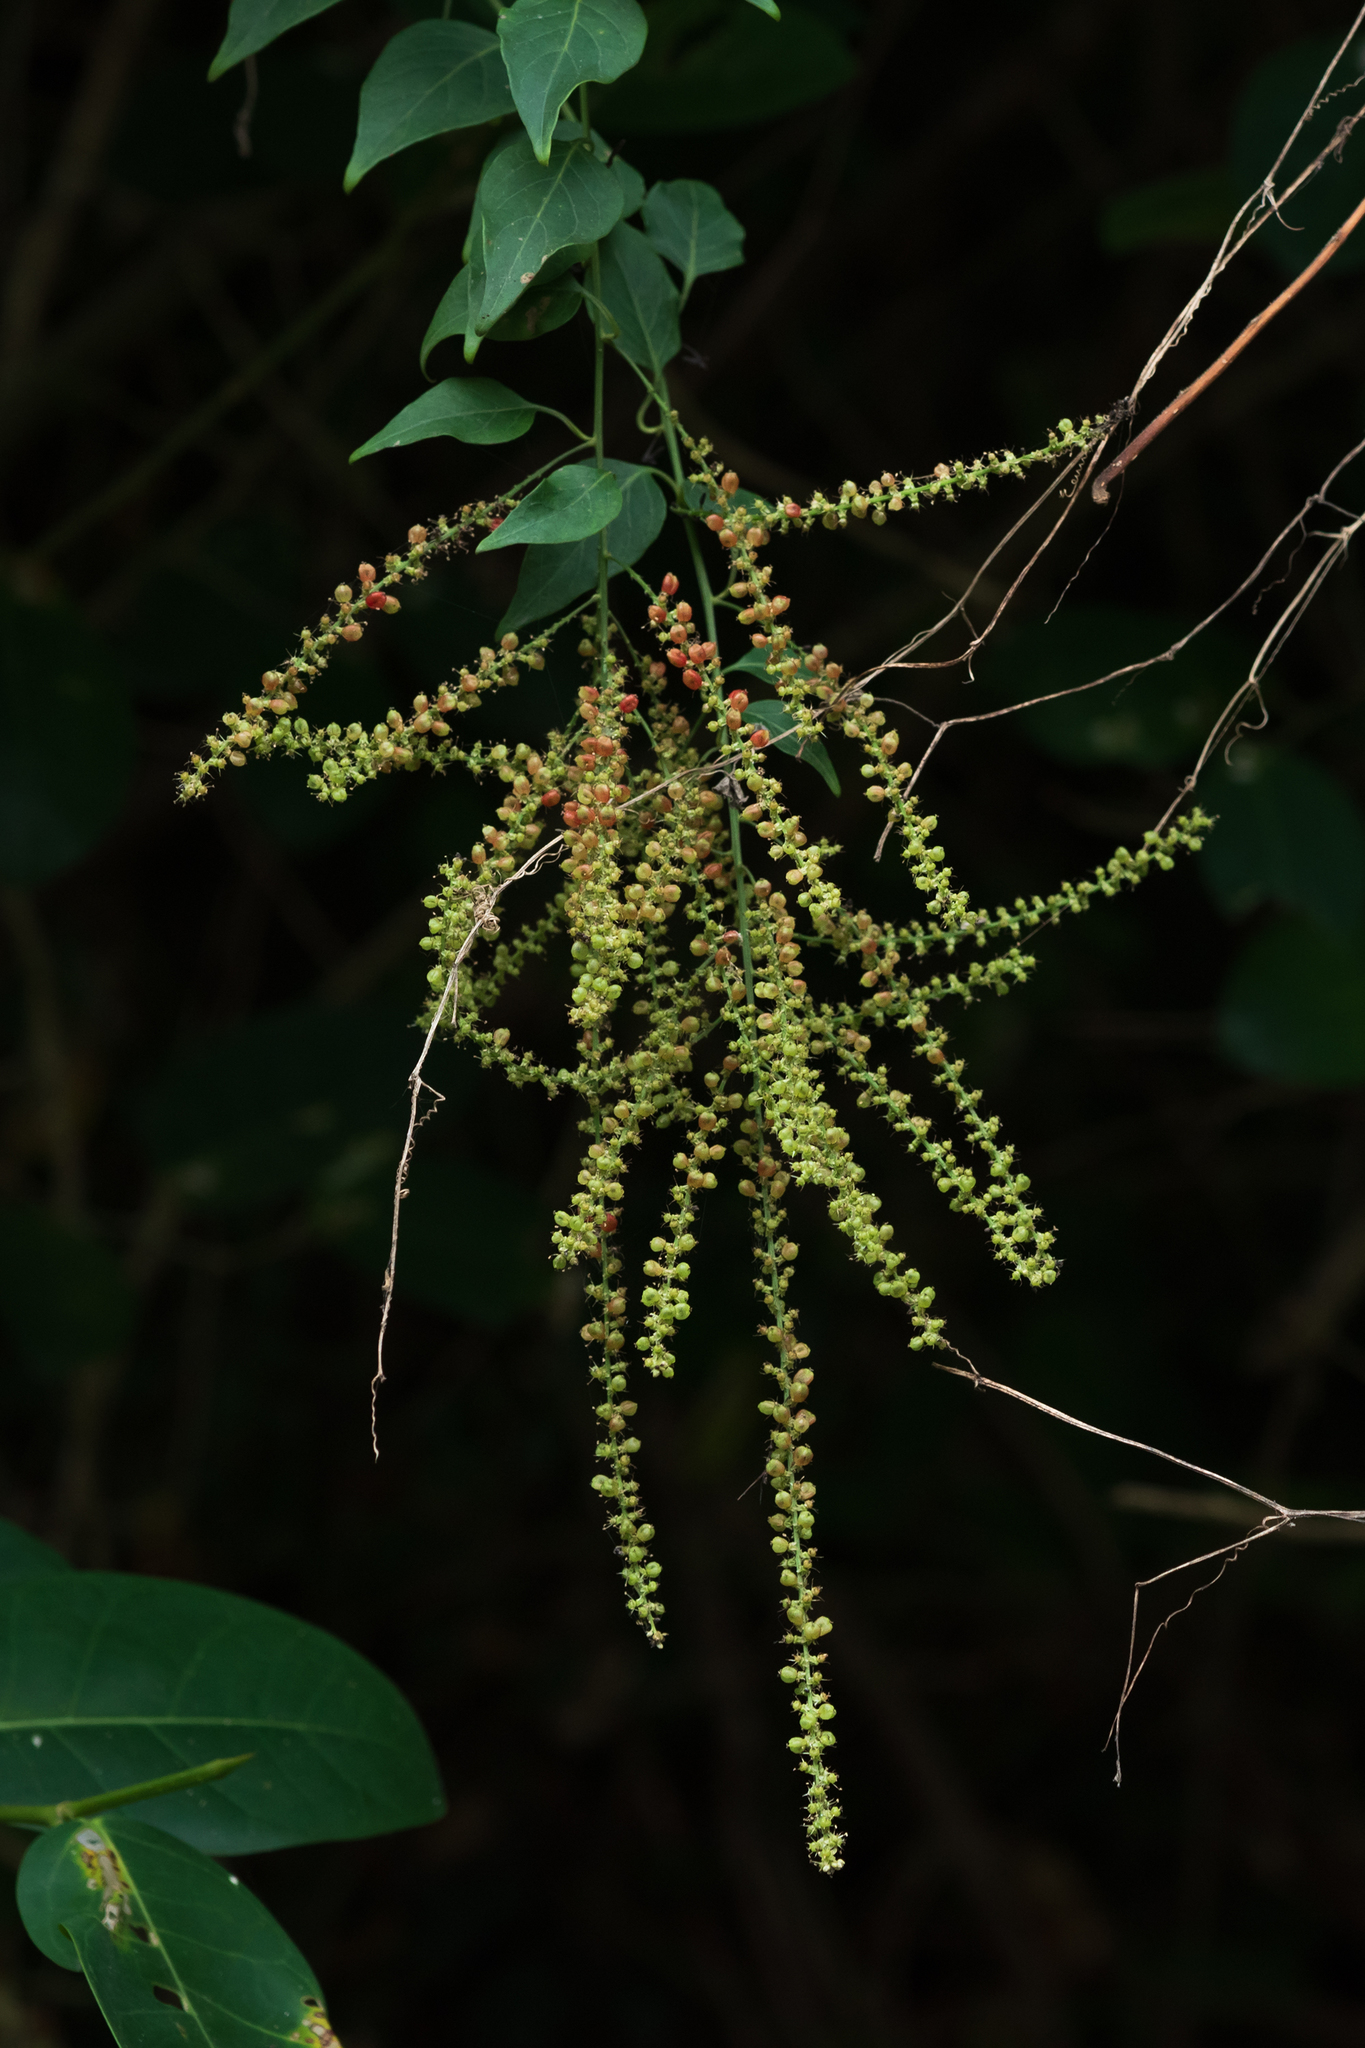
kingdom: Plantae
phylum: Tracheophyta
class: Magnoliopsida
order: Caryophyllales
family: Amaranthaceae
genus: Deeringia
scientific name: Deeringia amaranthoides
